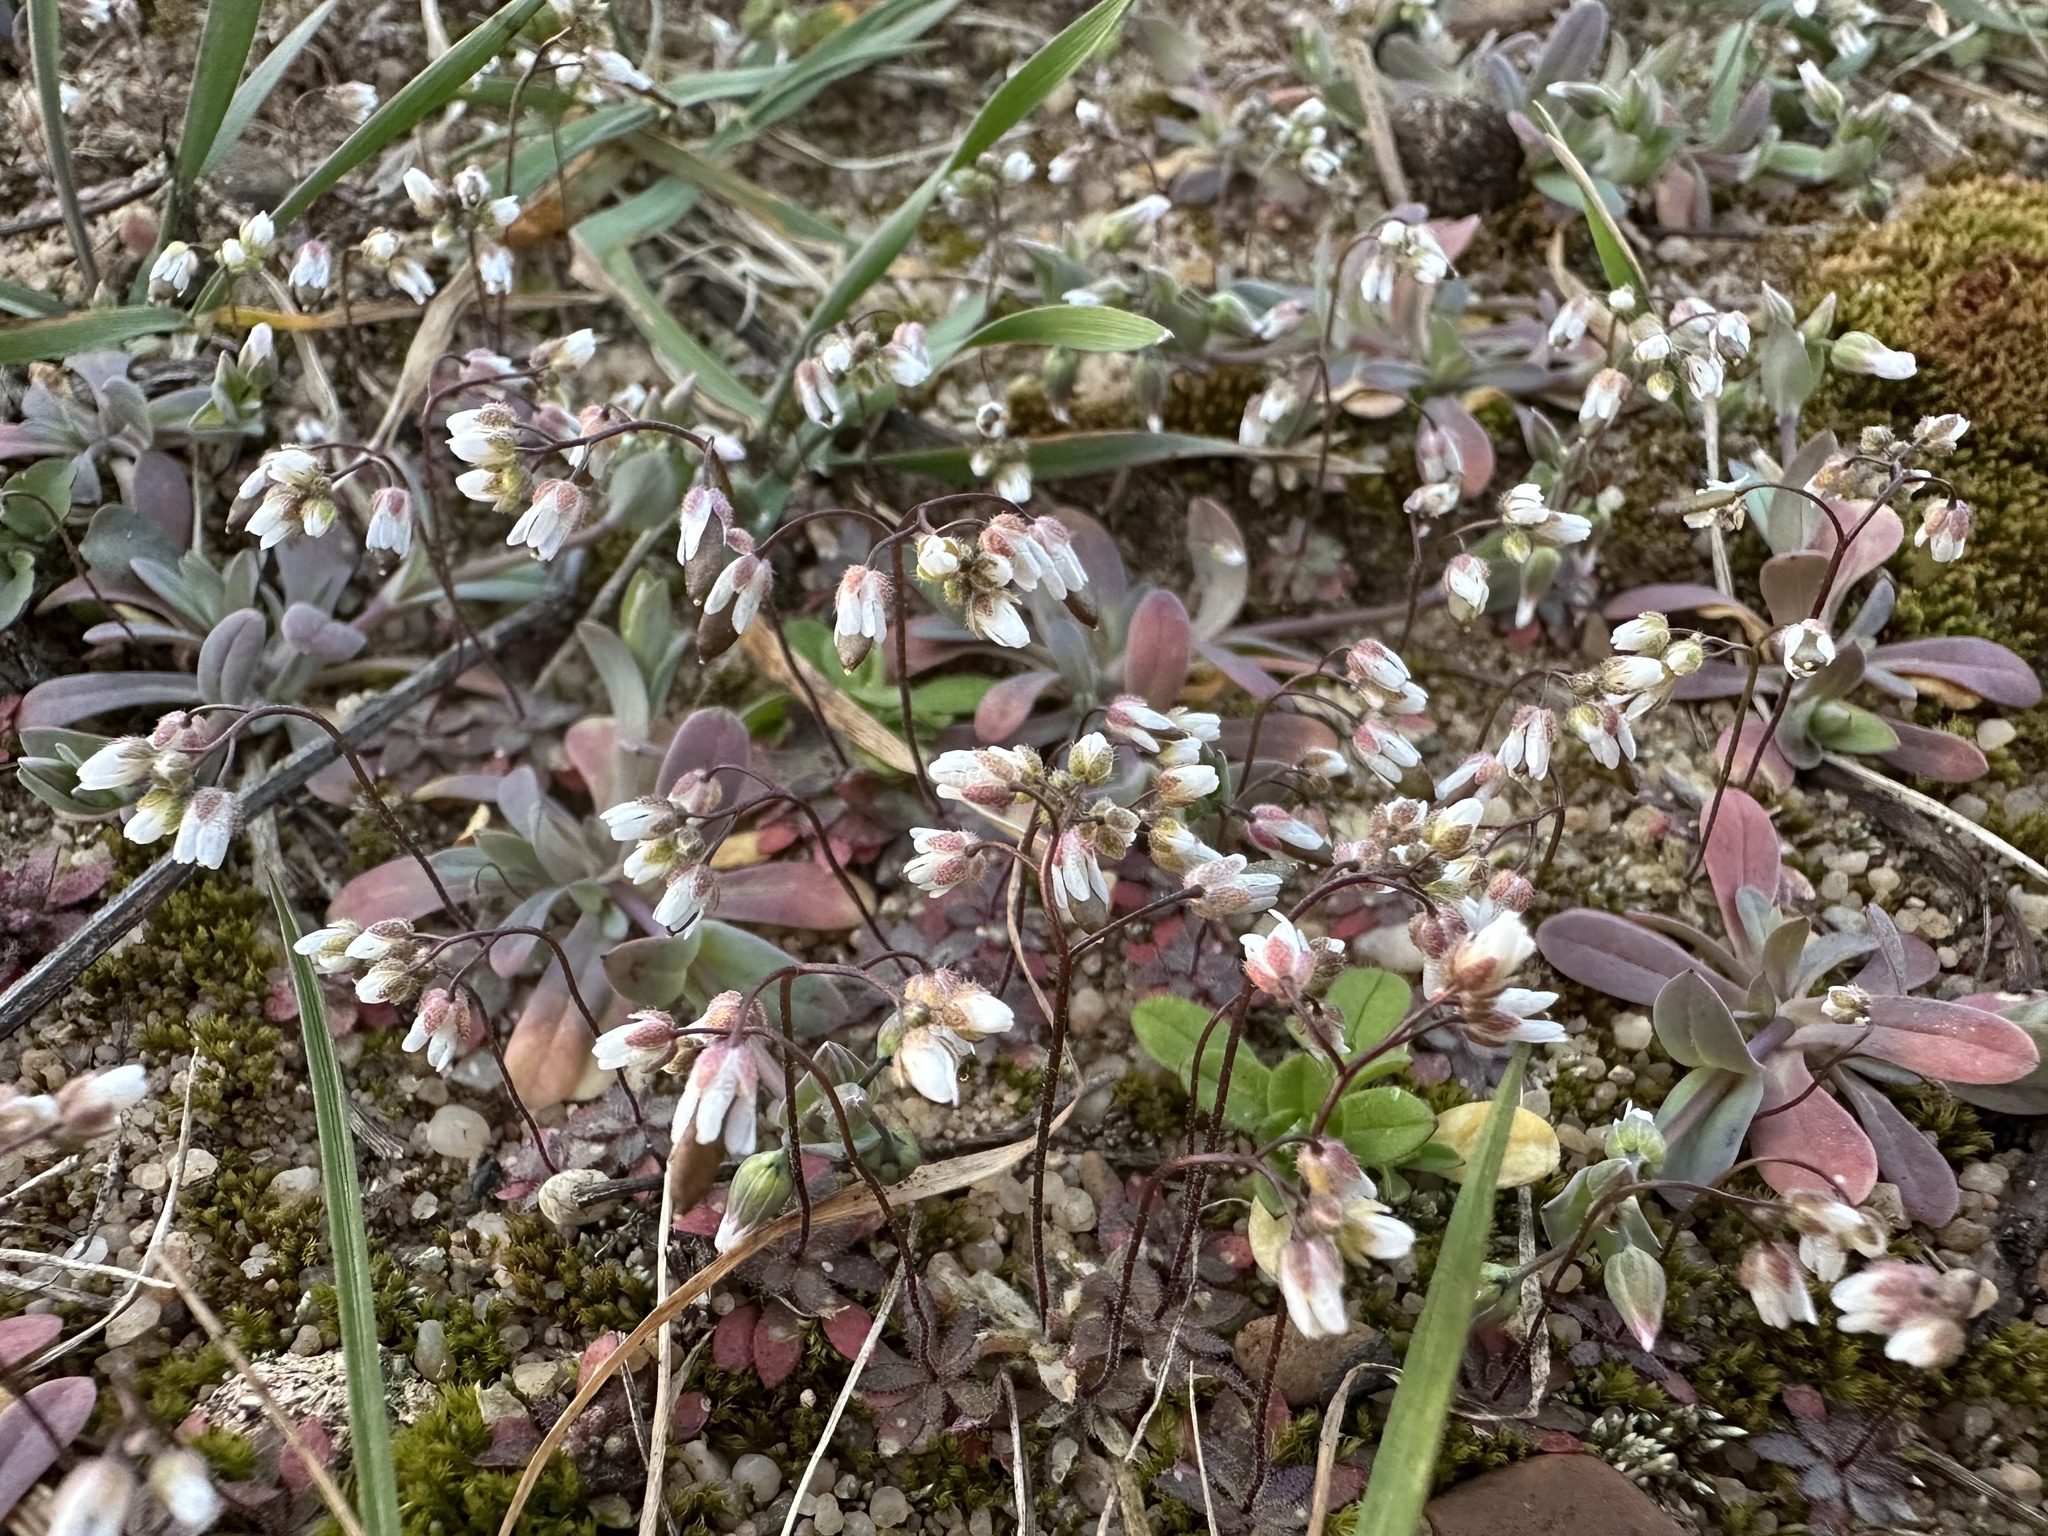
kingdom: Plantae
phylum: Tracheophyta
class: Magnoliopsida
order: Brassicales
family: Brassicaceae
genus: Draba
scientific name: Draba verna
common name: Spring draba
